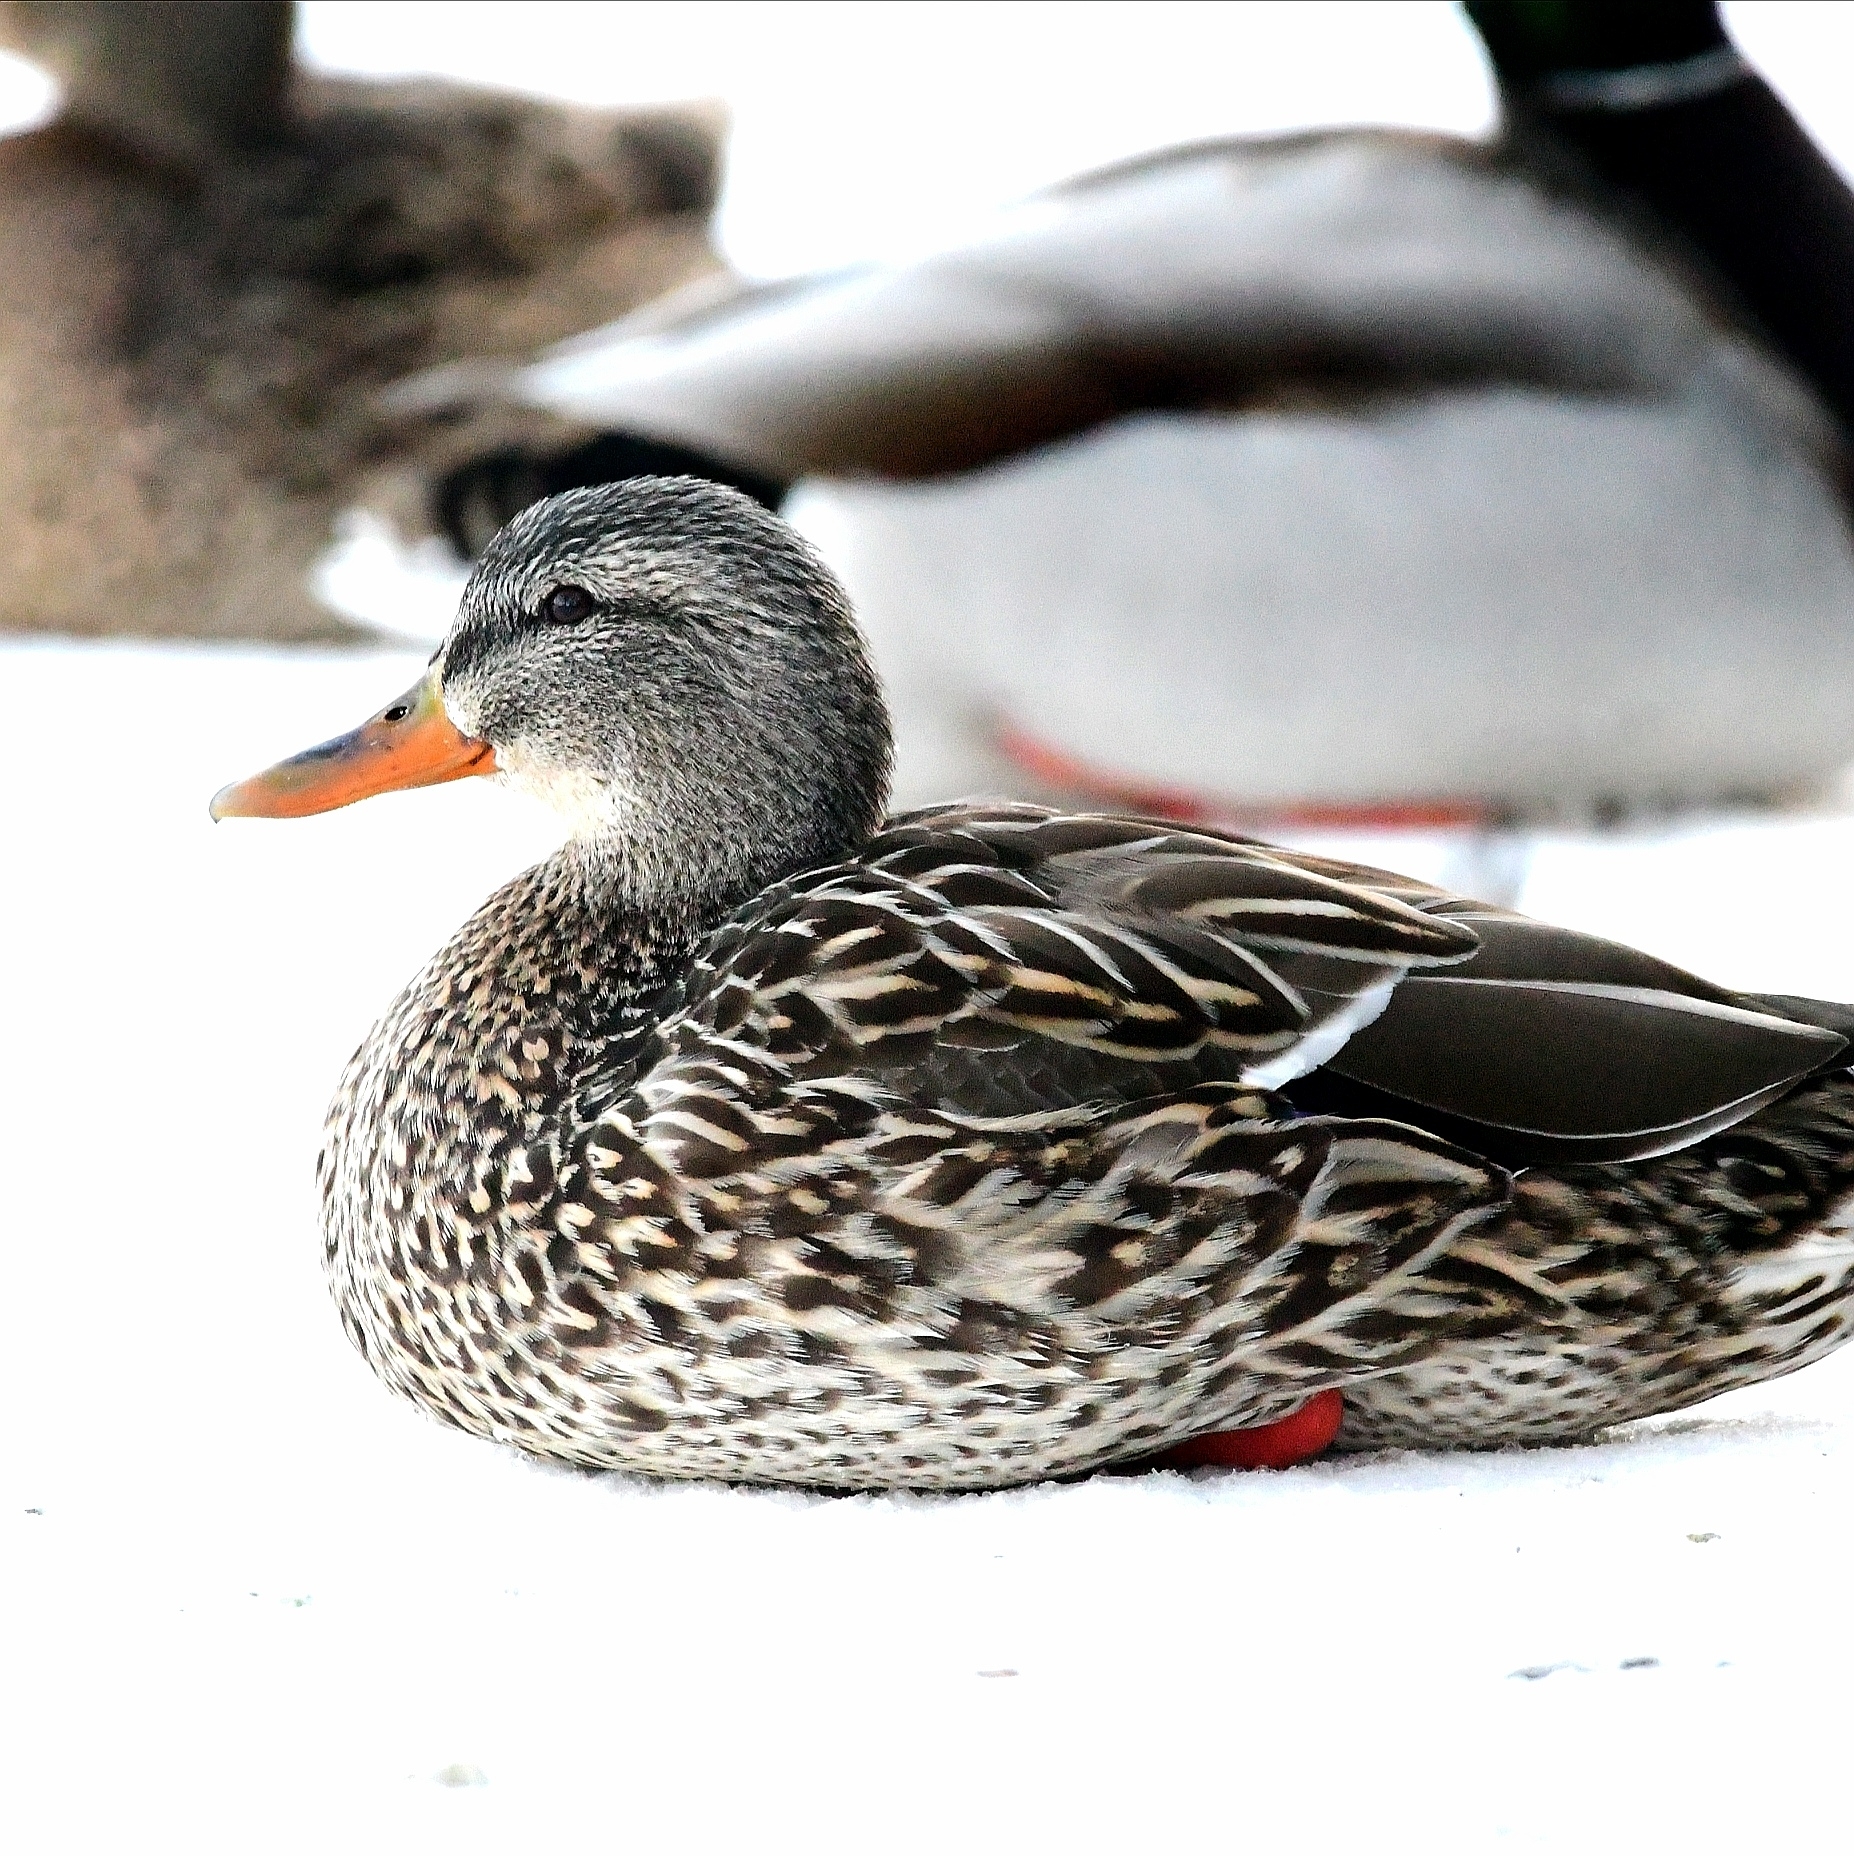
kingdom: Animalia
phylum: Chordata
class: Aves
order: Anseriformes
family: Anatidae
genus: Anas
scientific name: Anas platyrhynchos
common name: Mallard
